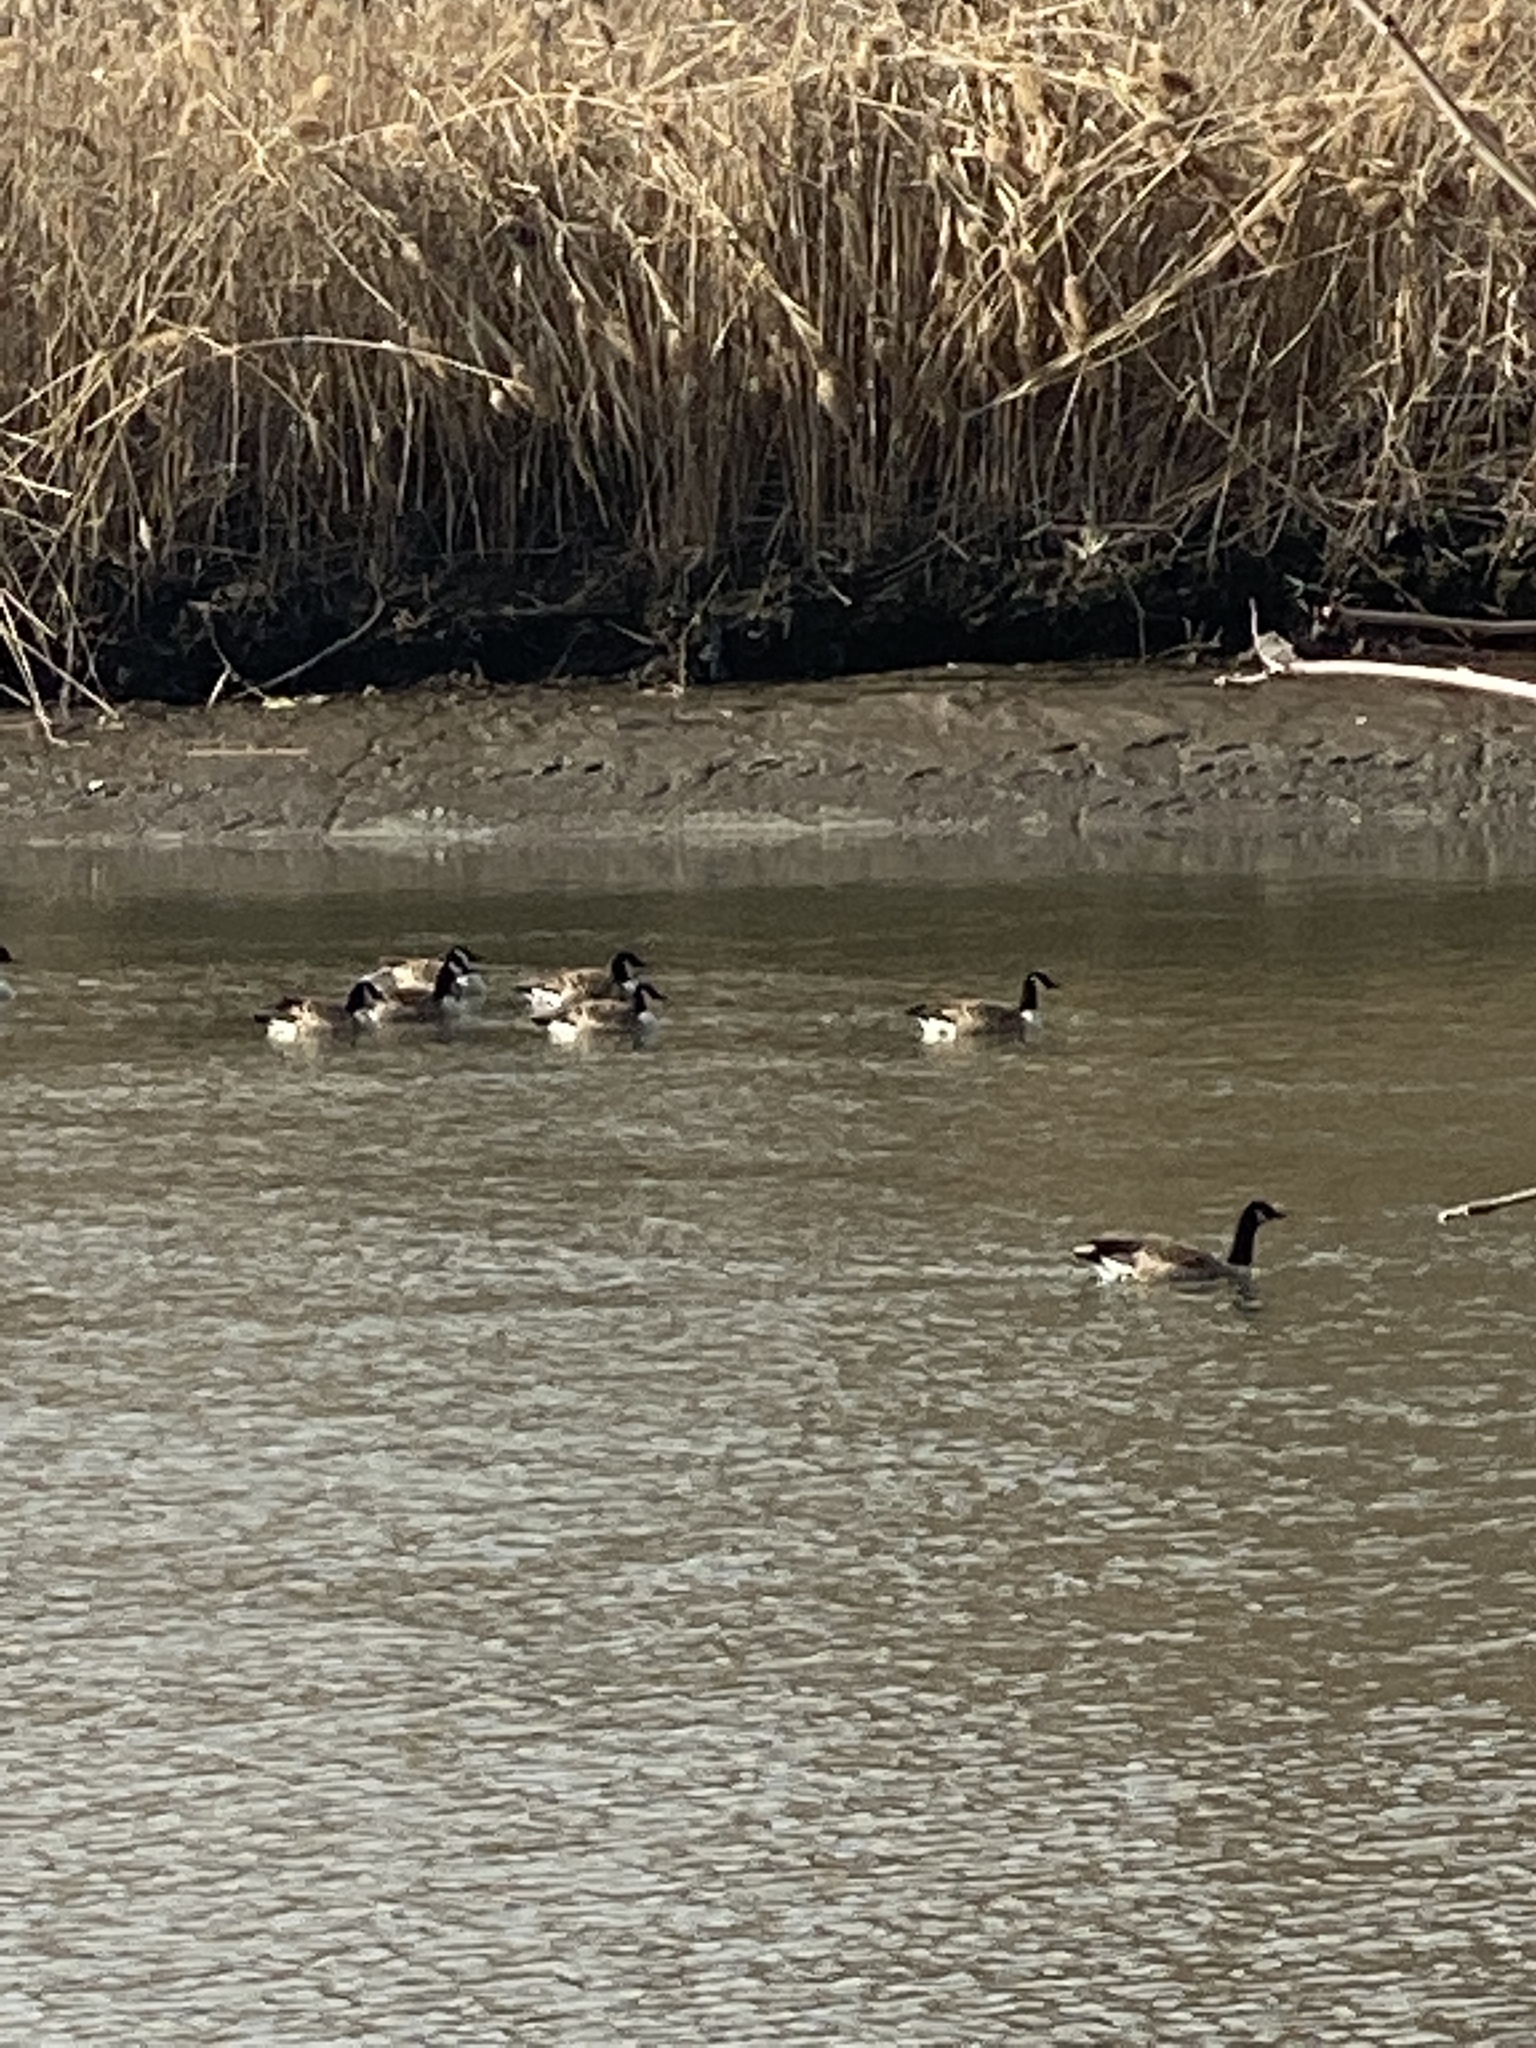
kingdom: Animalia
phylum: Chordata
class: Aves
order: Anseriformes
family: Anatidae
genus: Branta
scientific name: Branta canadensis
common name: Canada goose
